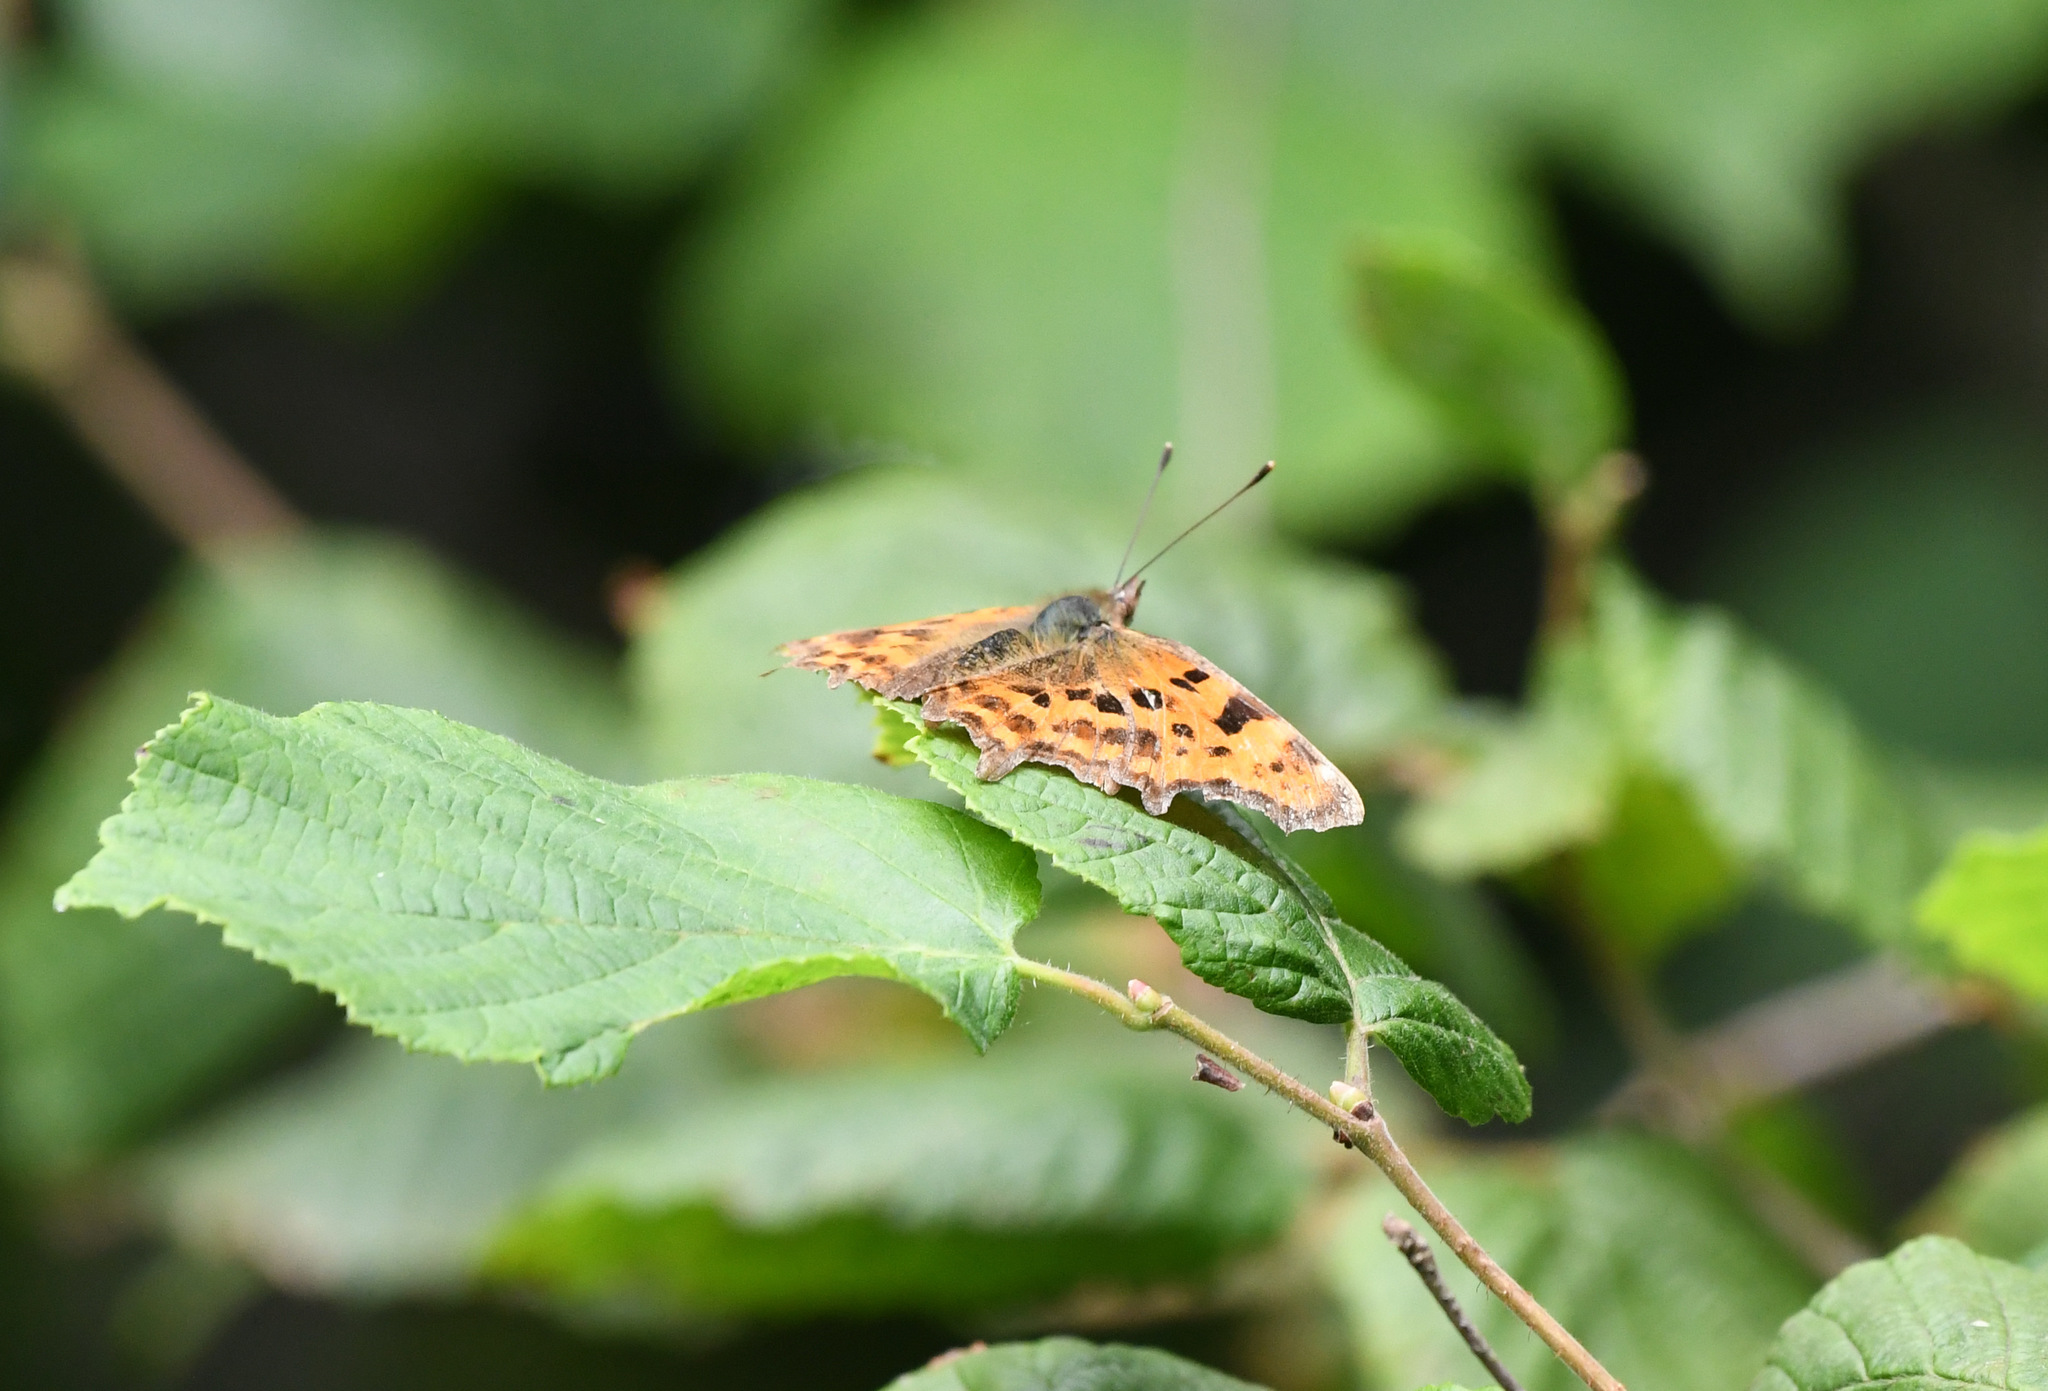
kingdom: Animalia
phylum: Arthropoda
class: Insecta
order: Lepidoptera
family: Nymphalidae
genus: Polygonia
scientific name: Polygonia c-album
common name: Comma
